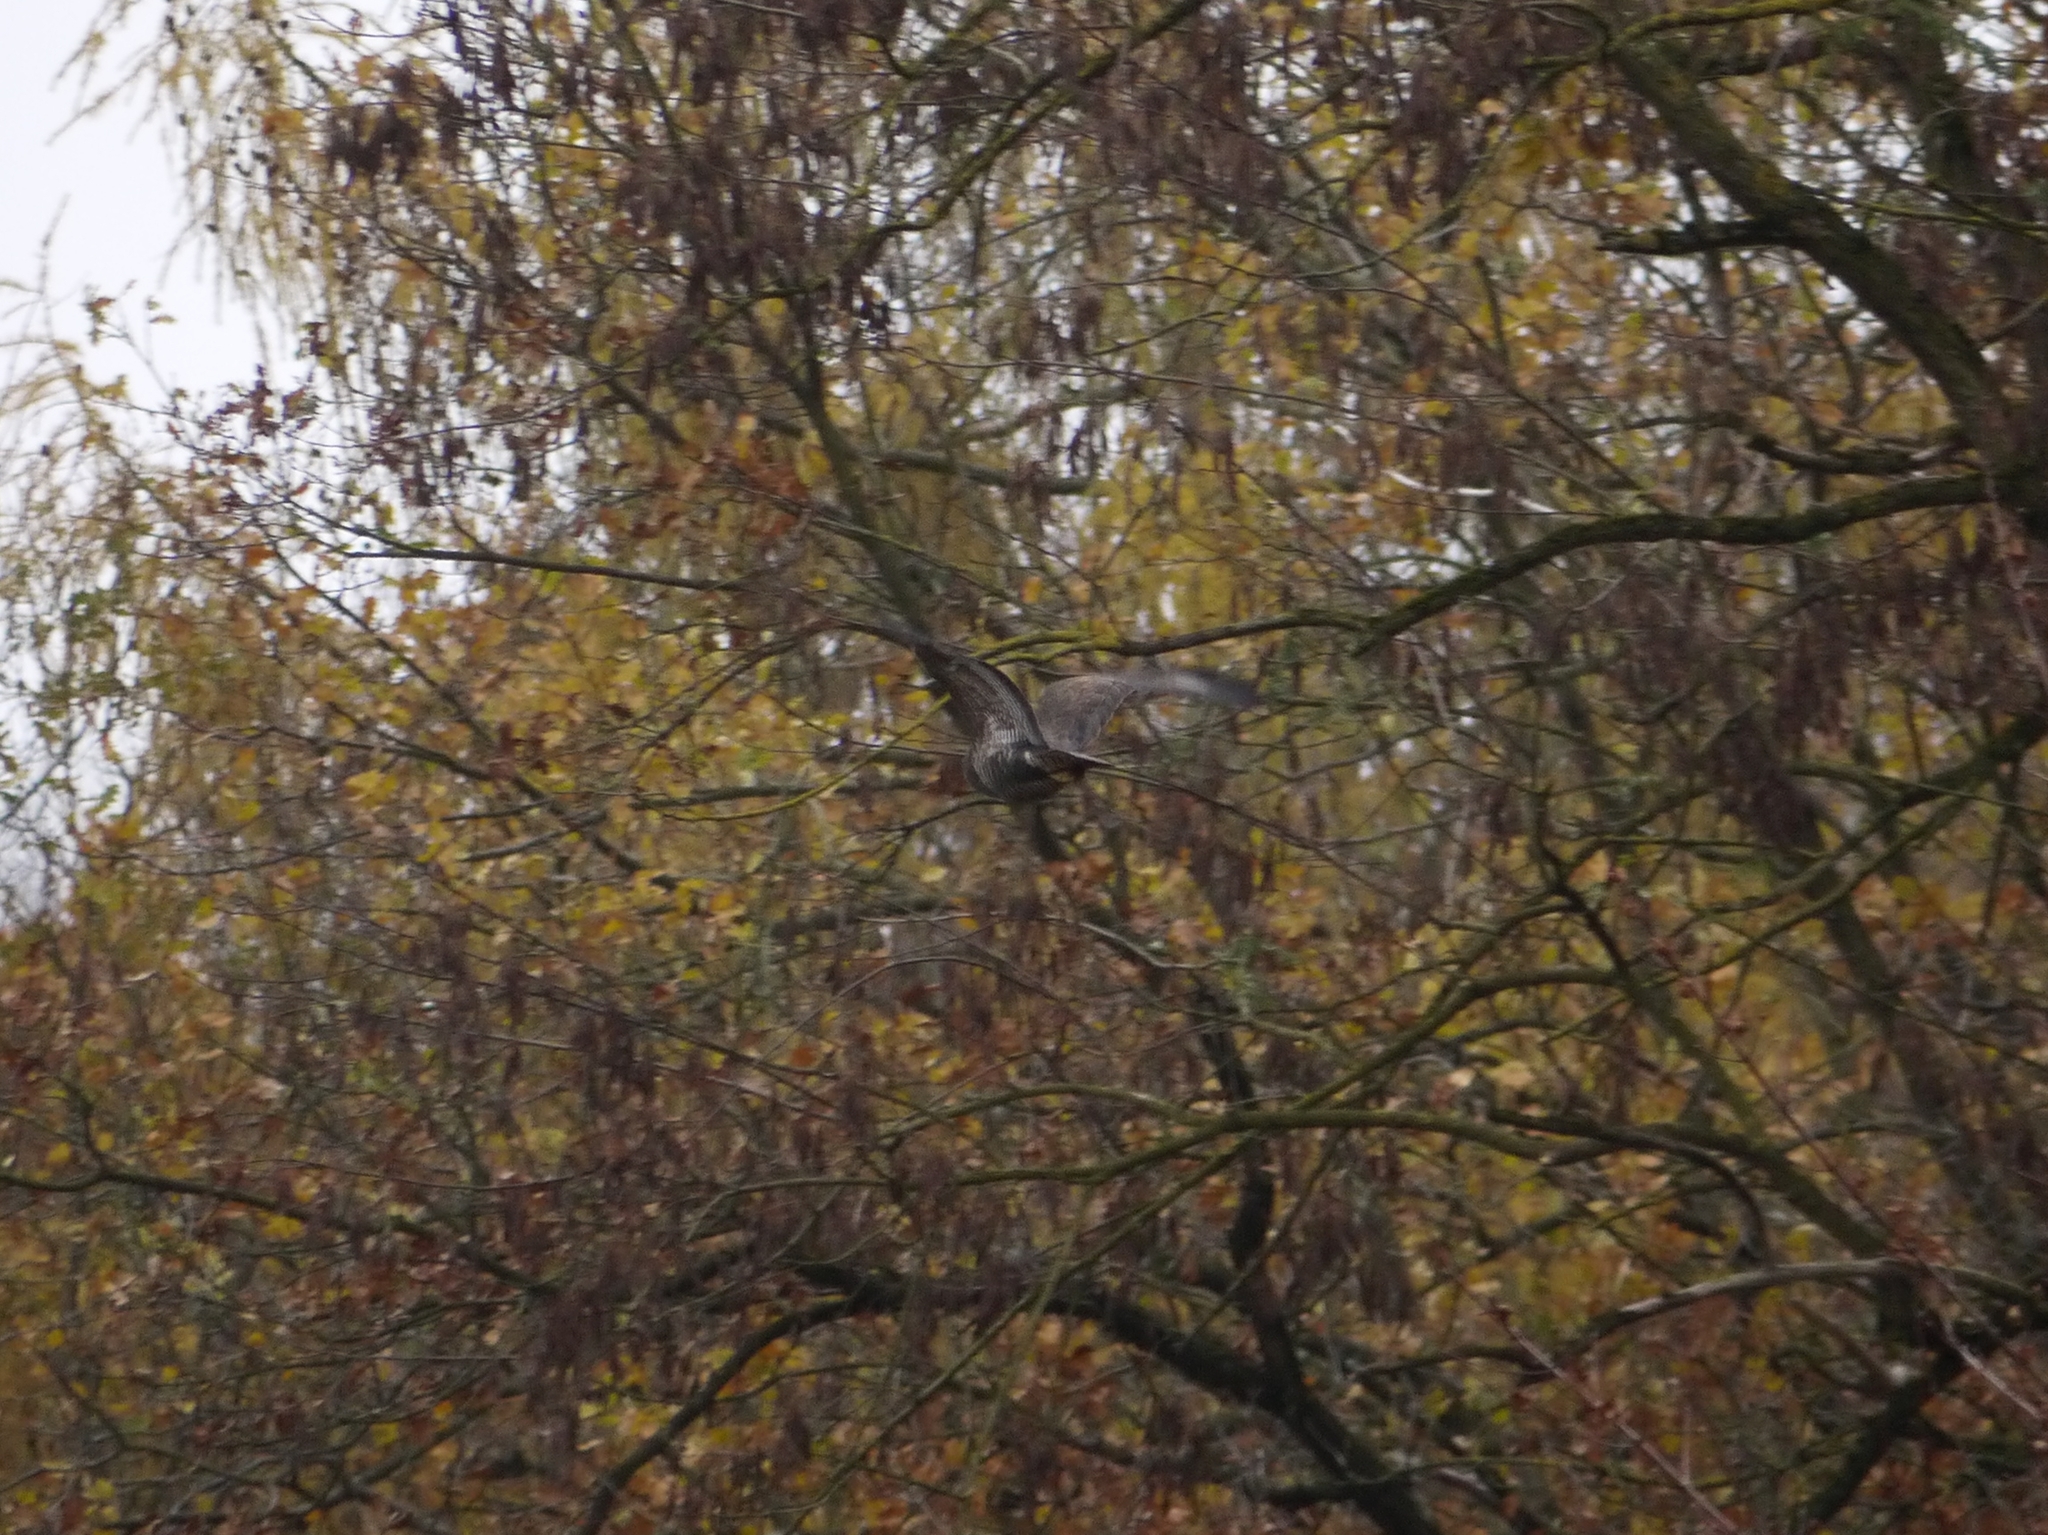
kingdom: Animalia
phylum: Chordata
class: Aves
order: Accipitriformes
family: Accipitridae
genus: Buteo
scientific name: Buteo buteo
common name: Common buzzard
